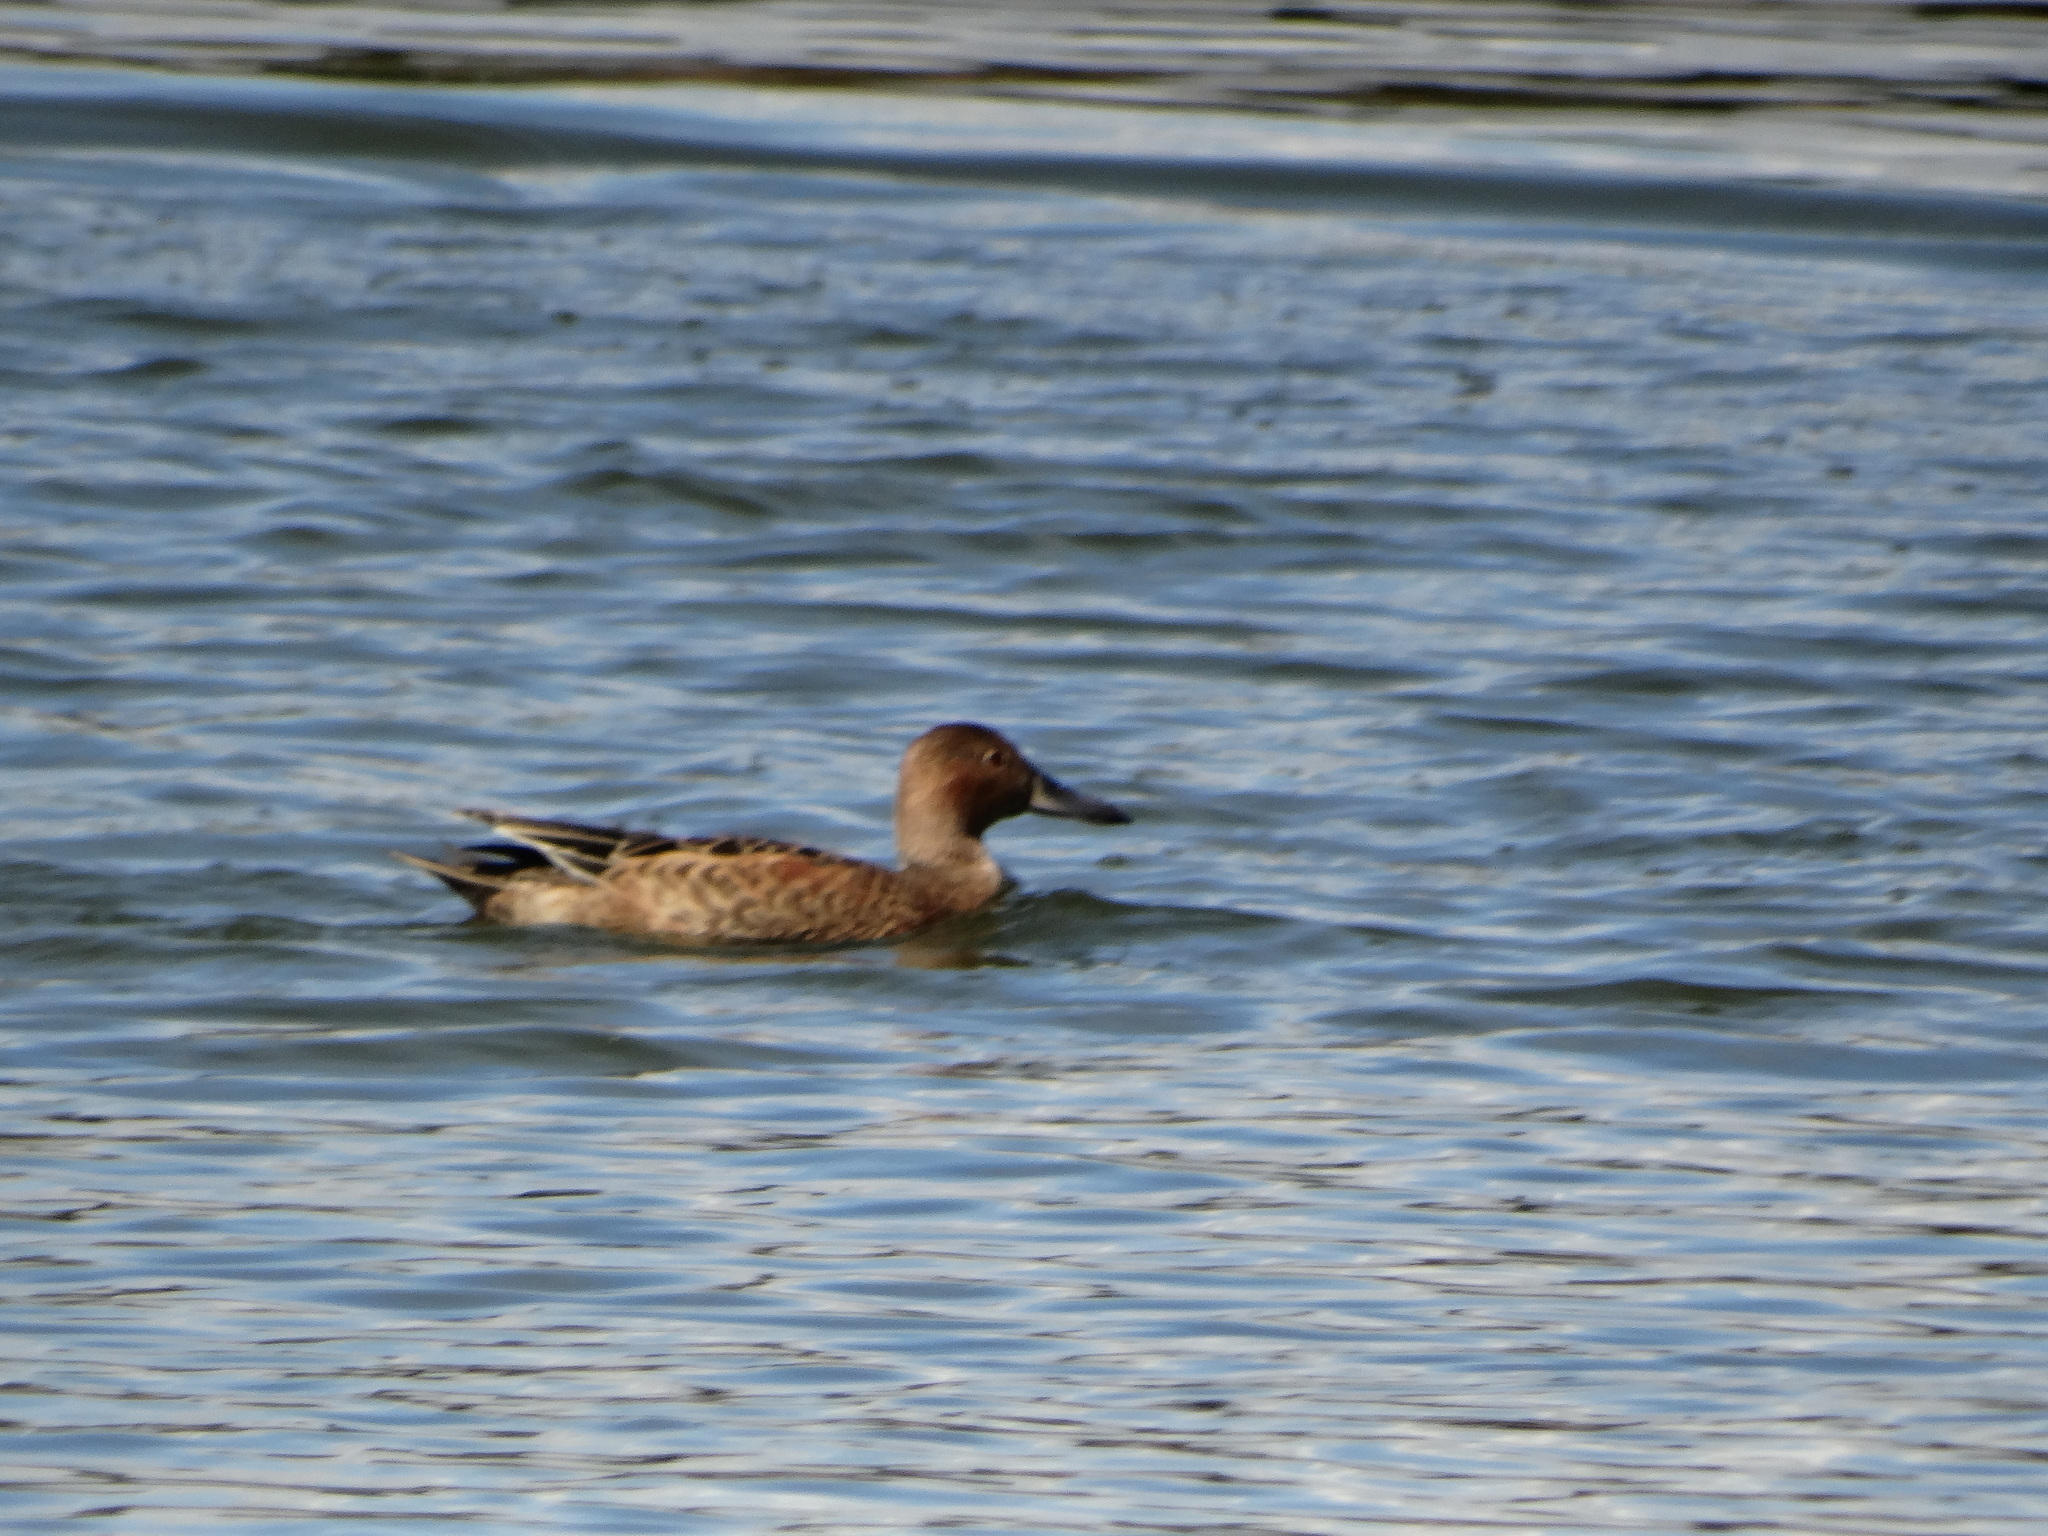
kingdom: Animalia
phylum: Chordata
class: Aves
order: Anseriformes
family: Anatidae
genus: Spatula
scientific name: Spatula cyanoptera
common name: Cinnamon teal
